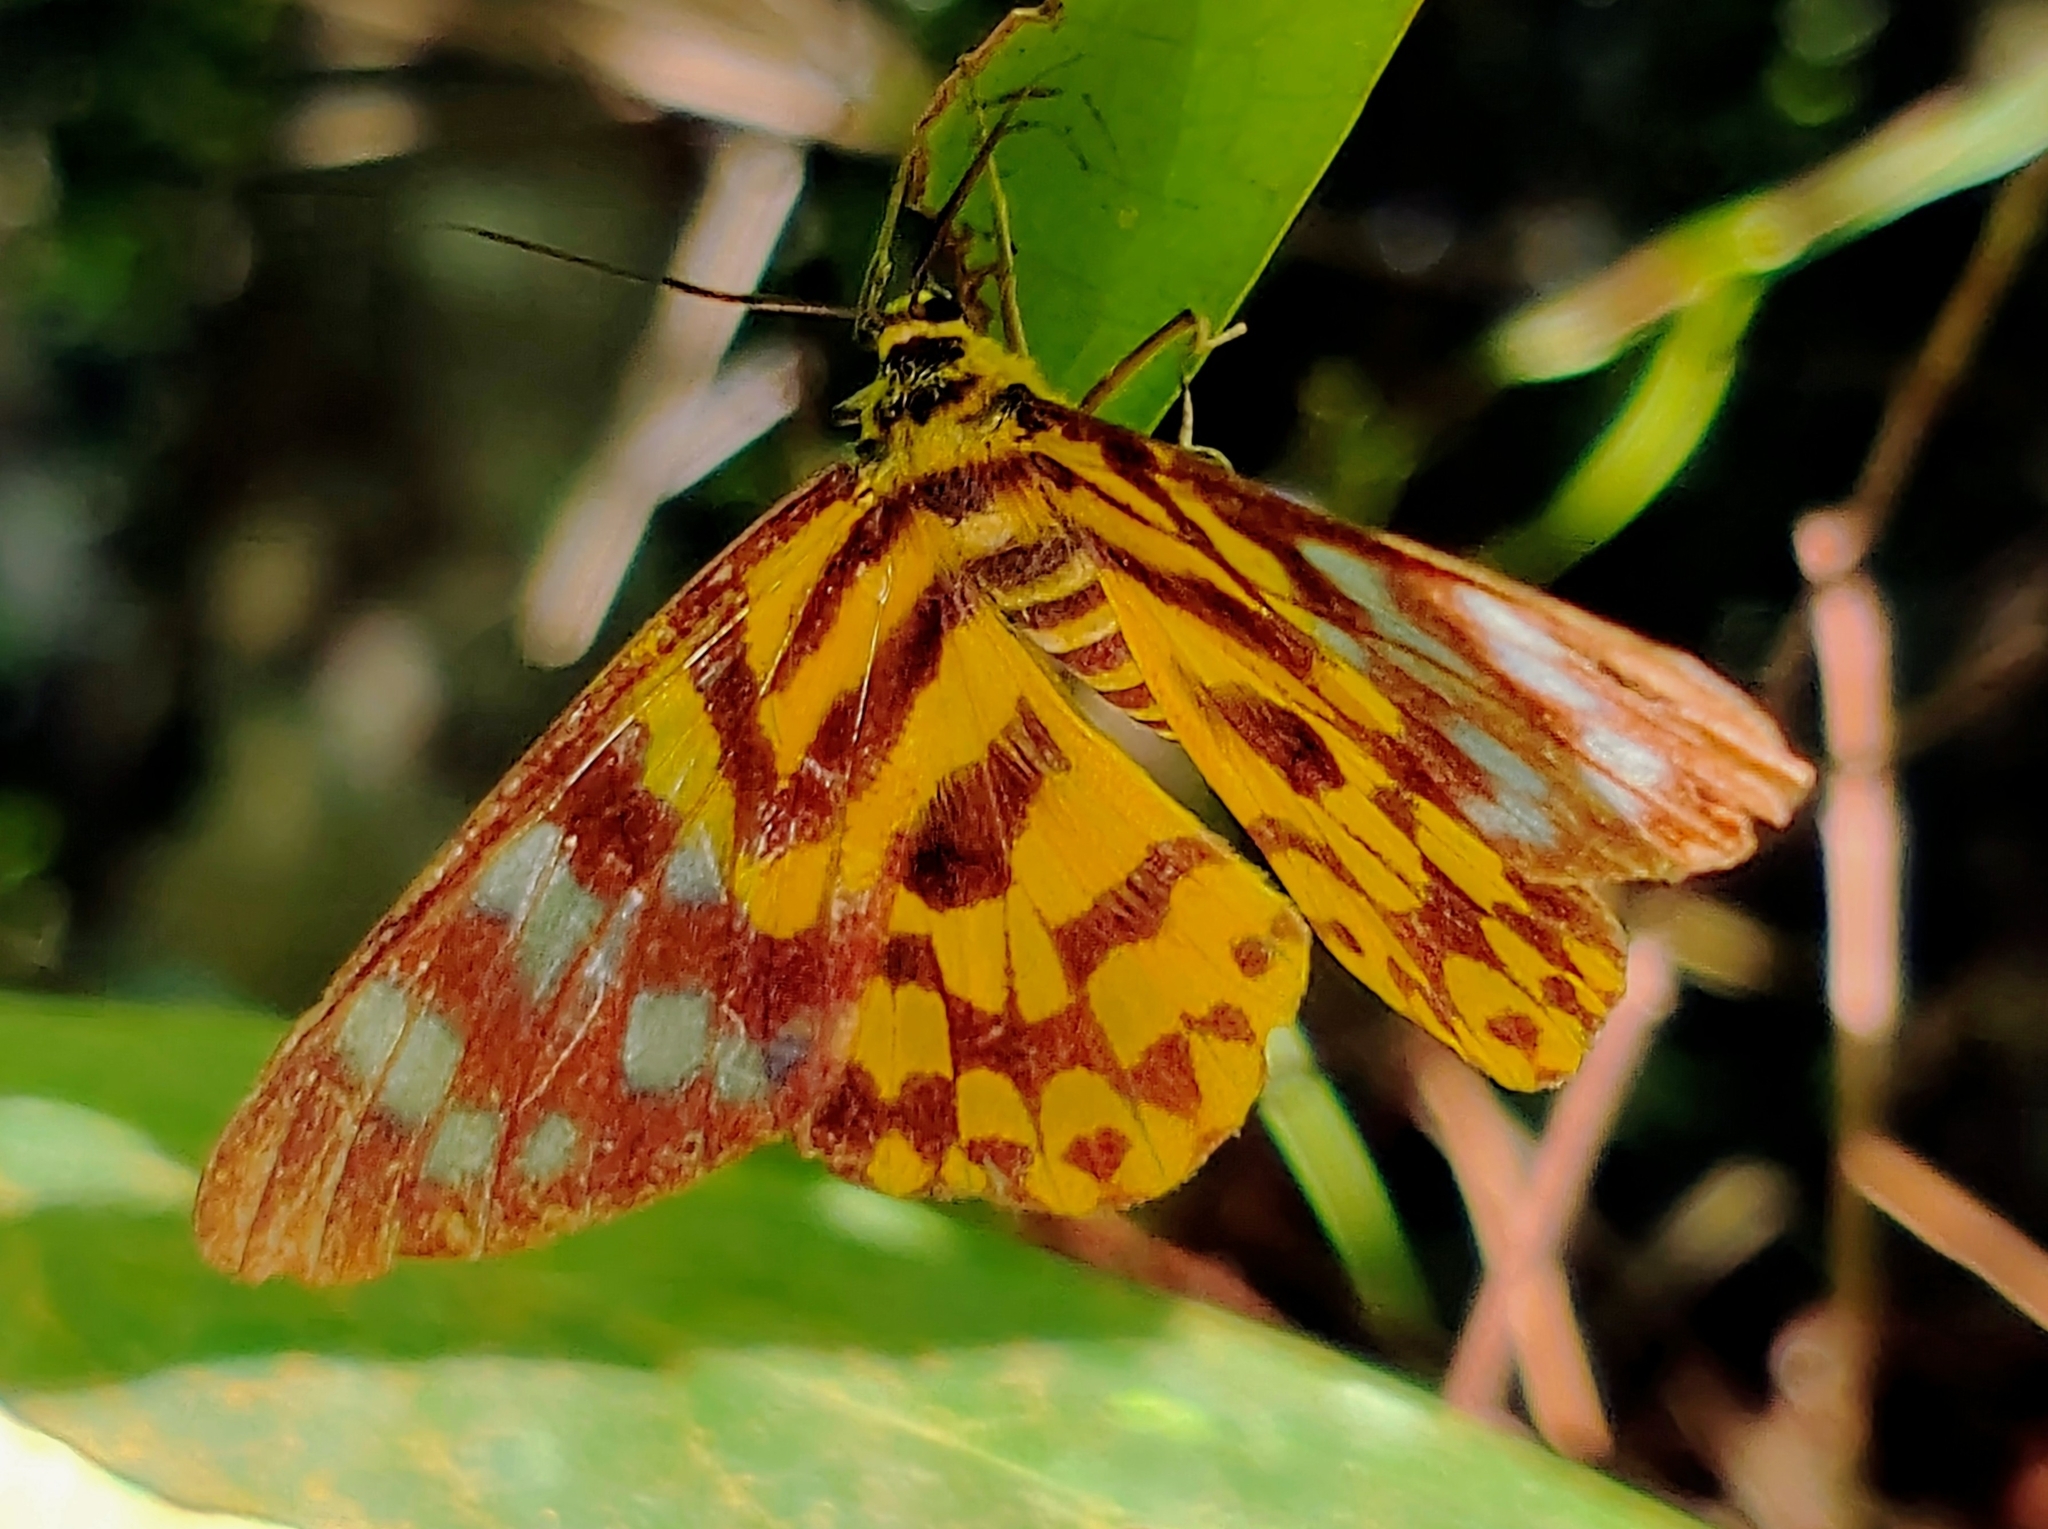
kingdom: Animalia
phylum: Arthropoda
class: Insecta
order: Lepidoptera
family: Geometridae
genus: Dysphania
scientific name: Dysphania subrepleta
